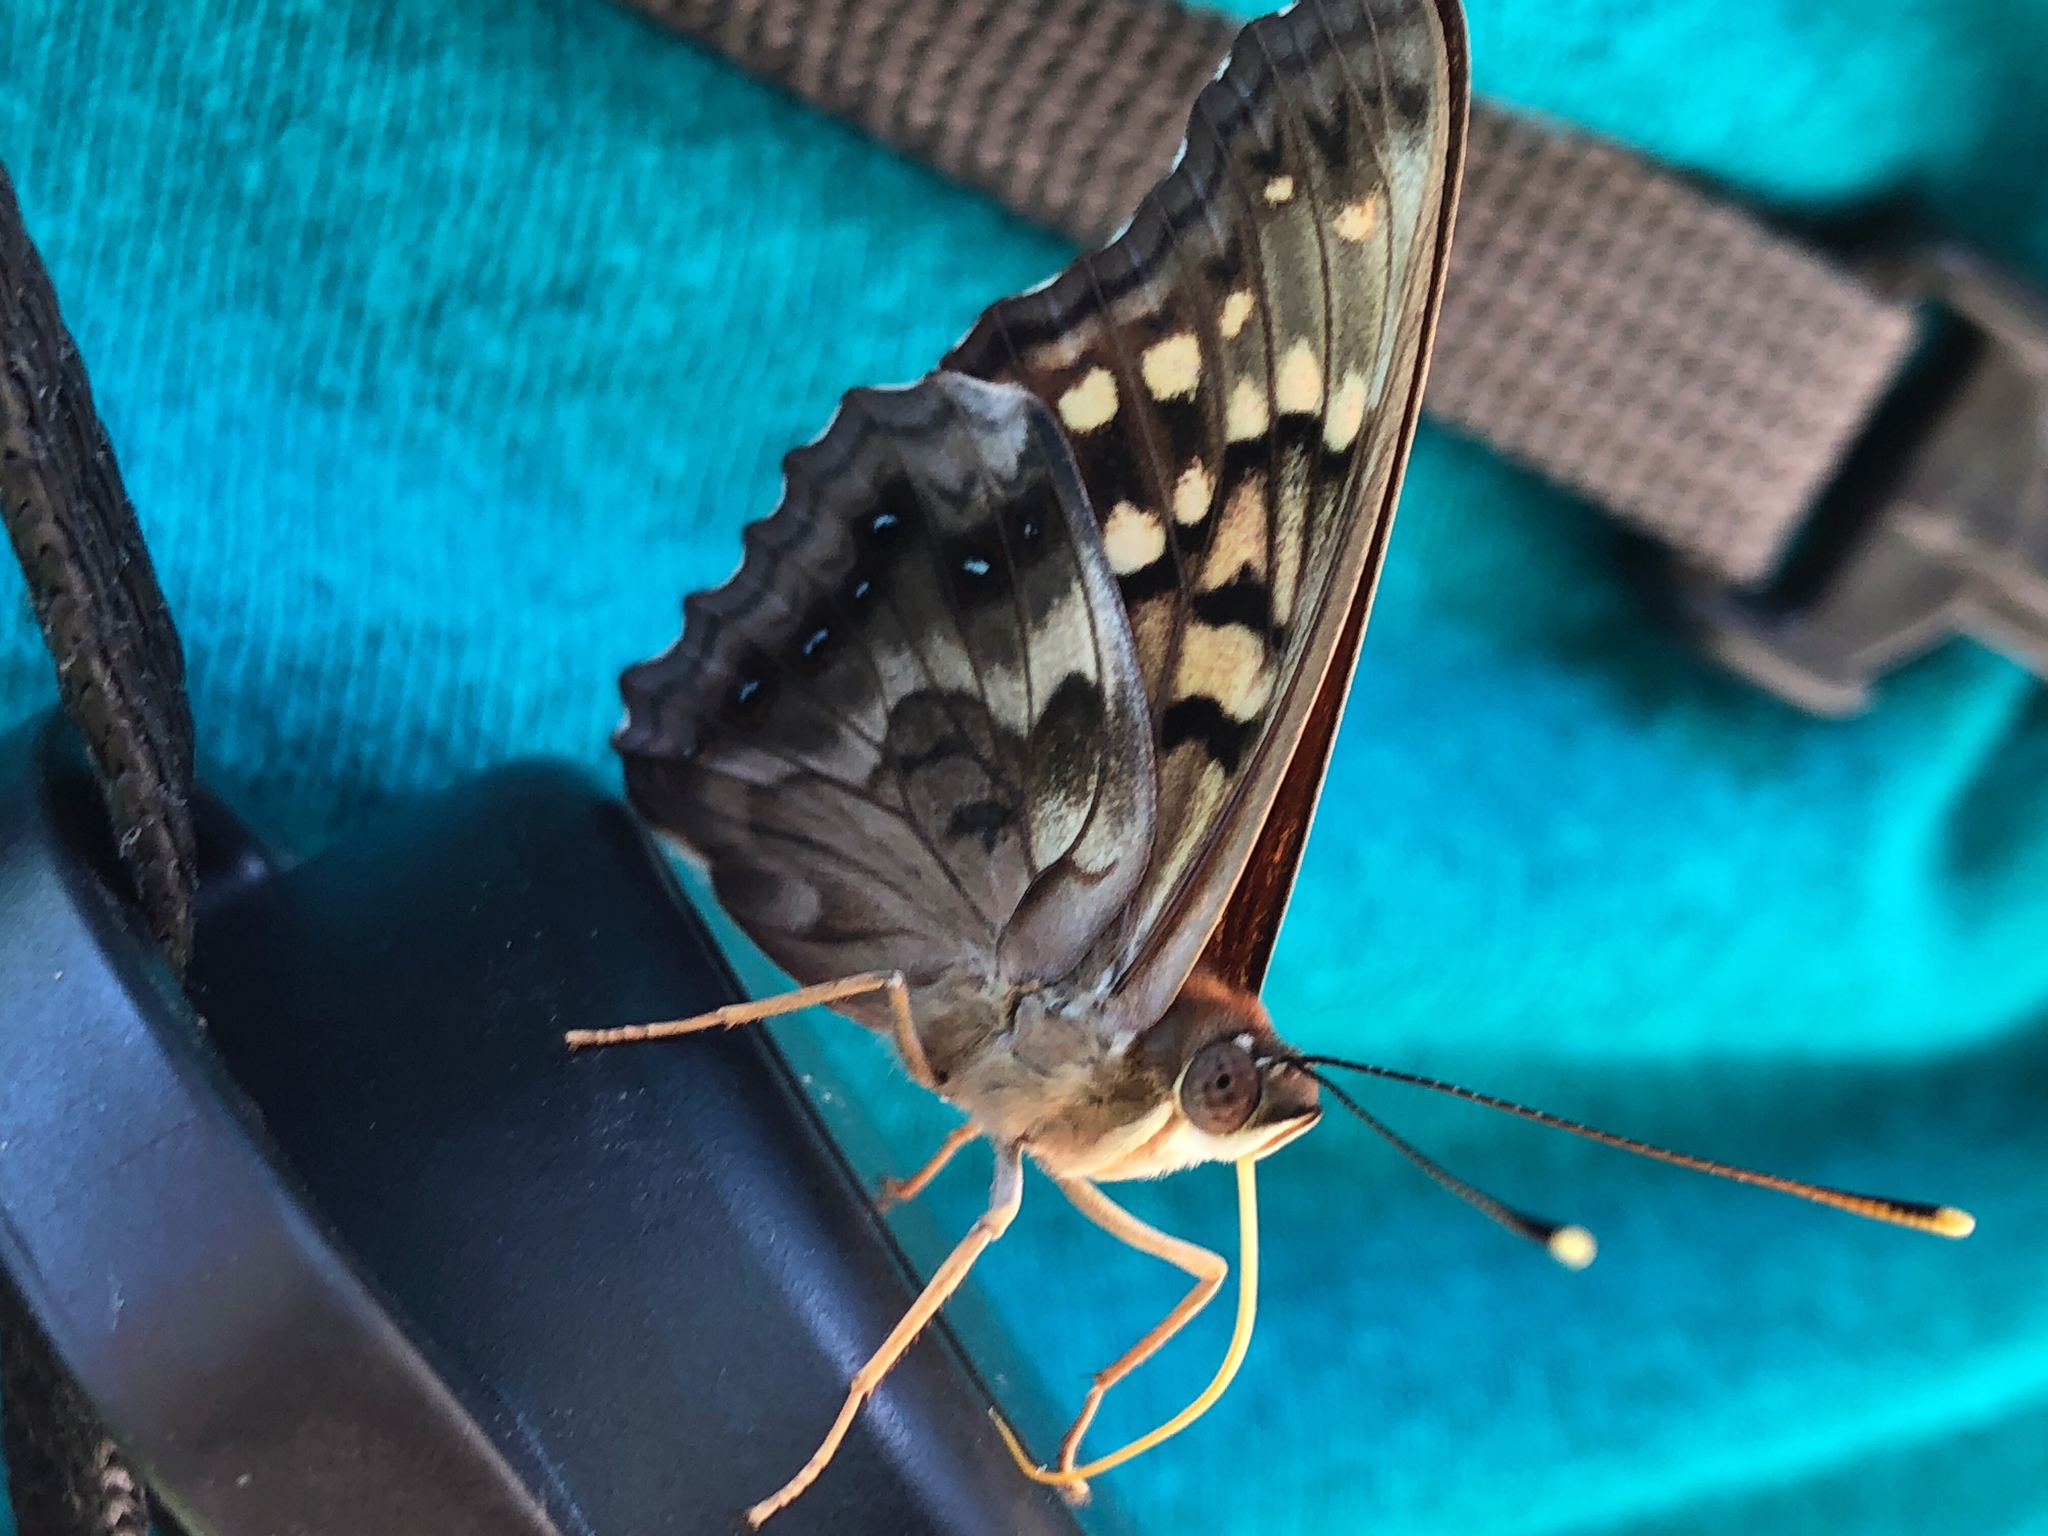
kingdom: Animalia
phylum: Arthropoda
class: Insecta
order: Lepidoptera
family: Nymphalidae
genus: Asterocampa
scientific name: Asterocampa clyton
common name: Tawny emperor
